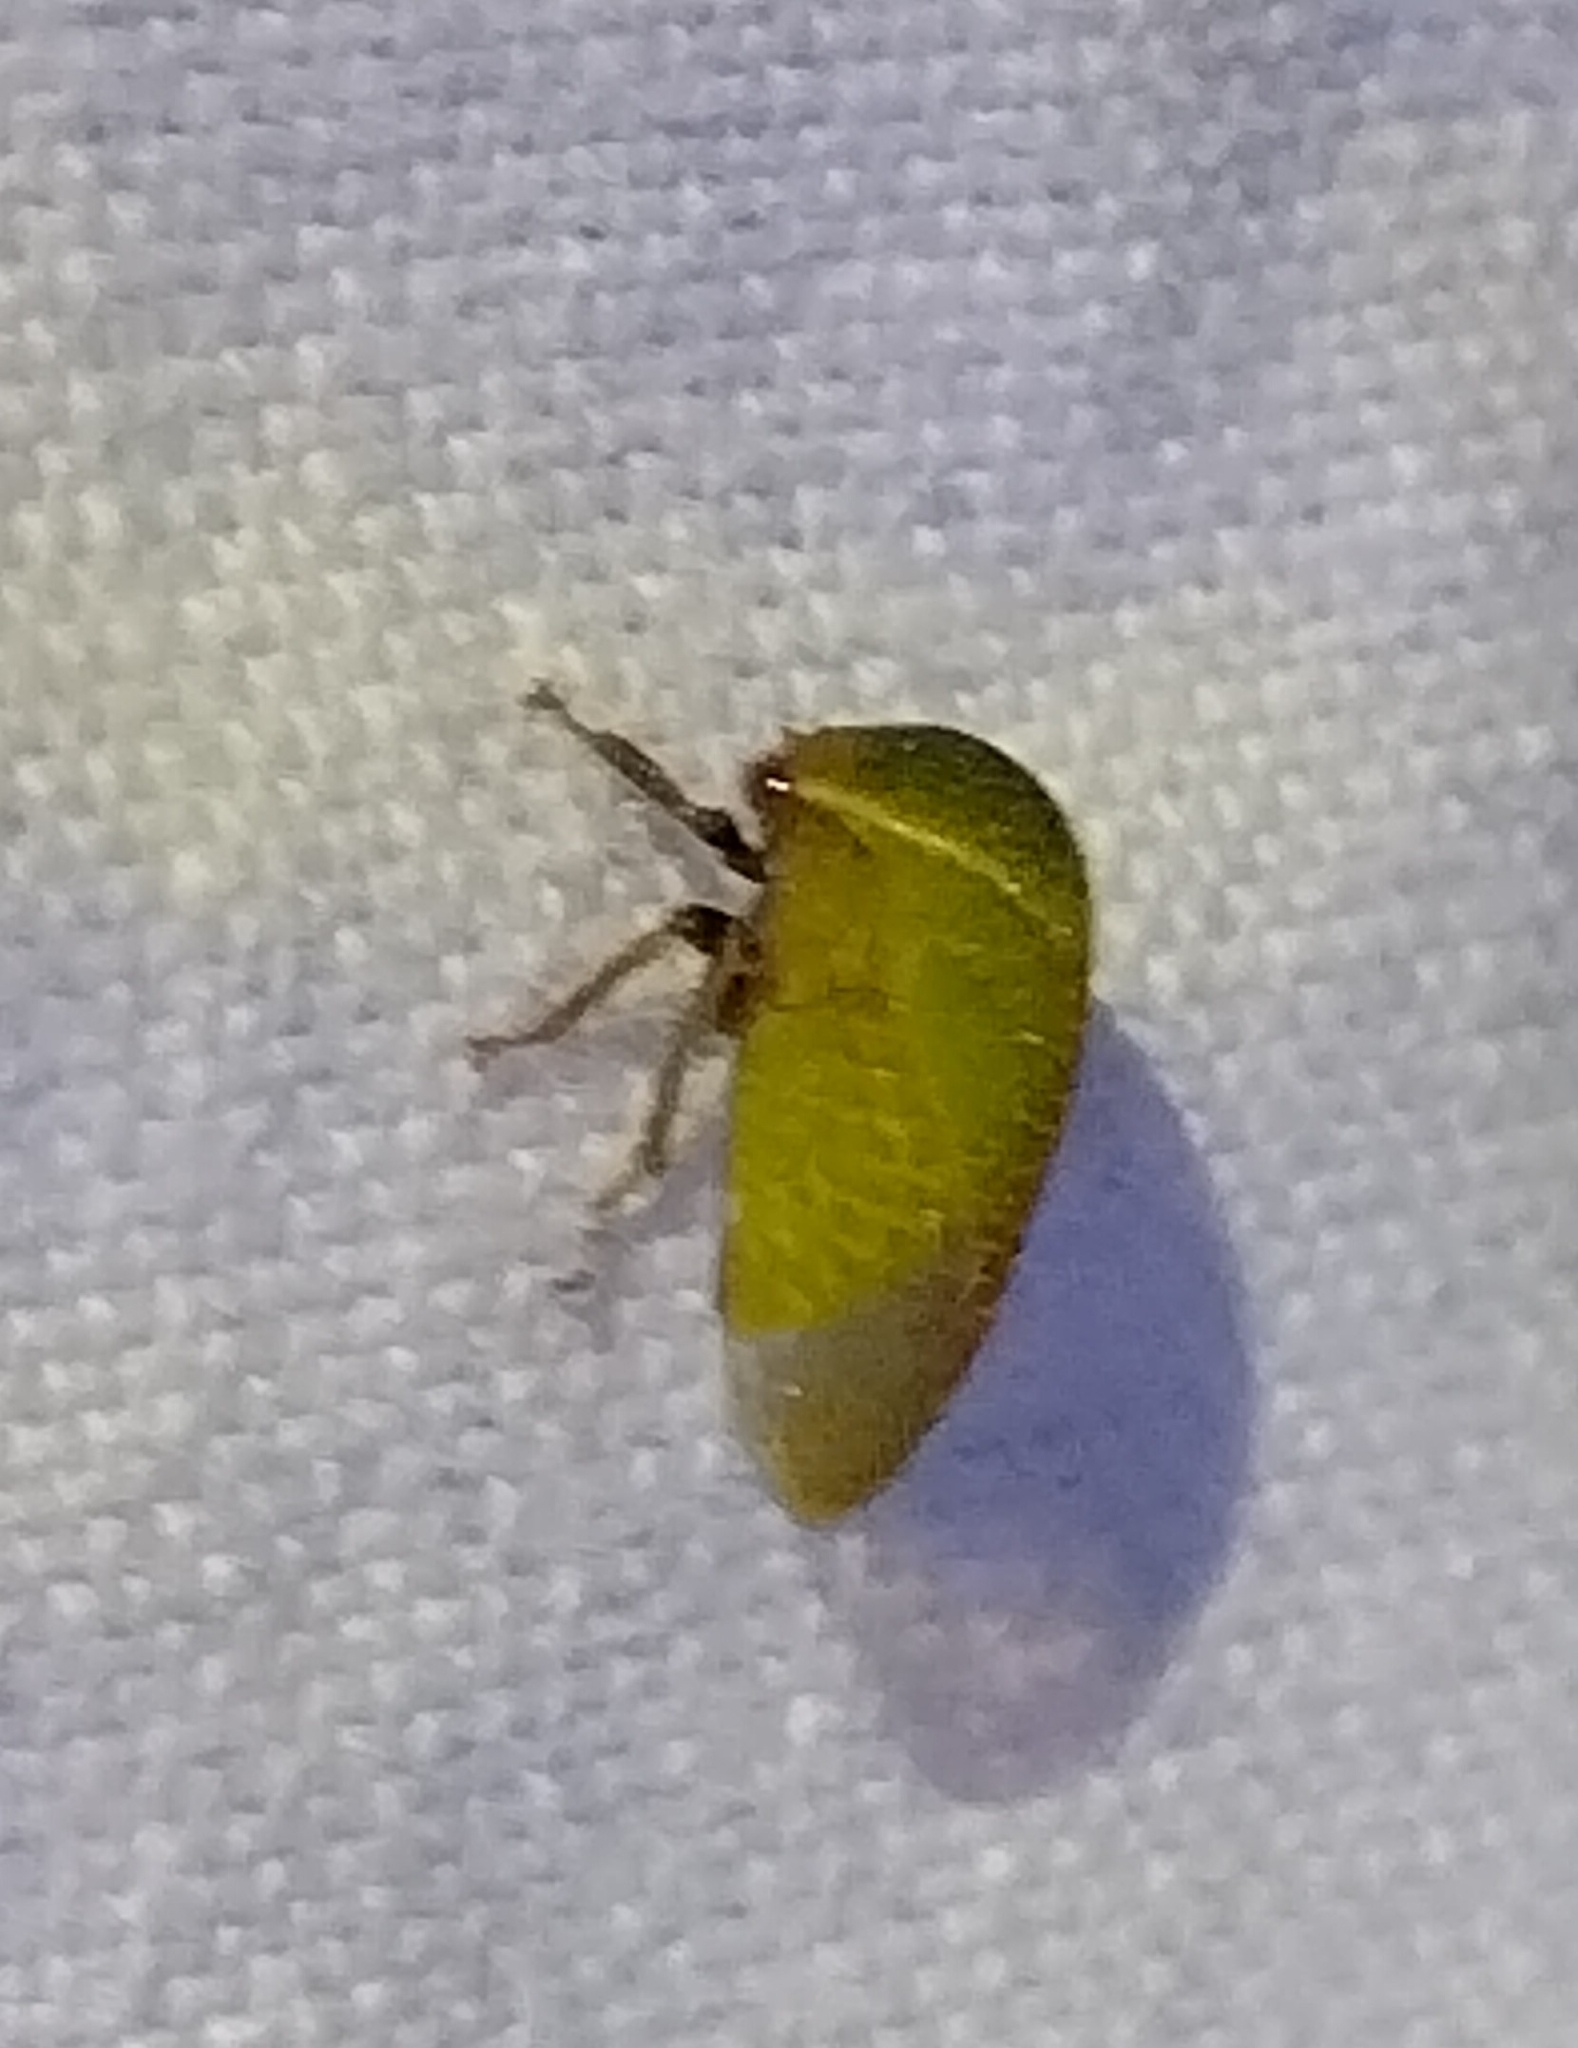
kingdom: Animalia
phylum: Arthropoda
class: Insecta
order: Hemiptera
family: Membracidae
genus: Stictocephala
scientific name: Stictocephala lutea
